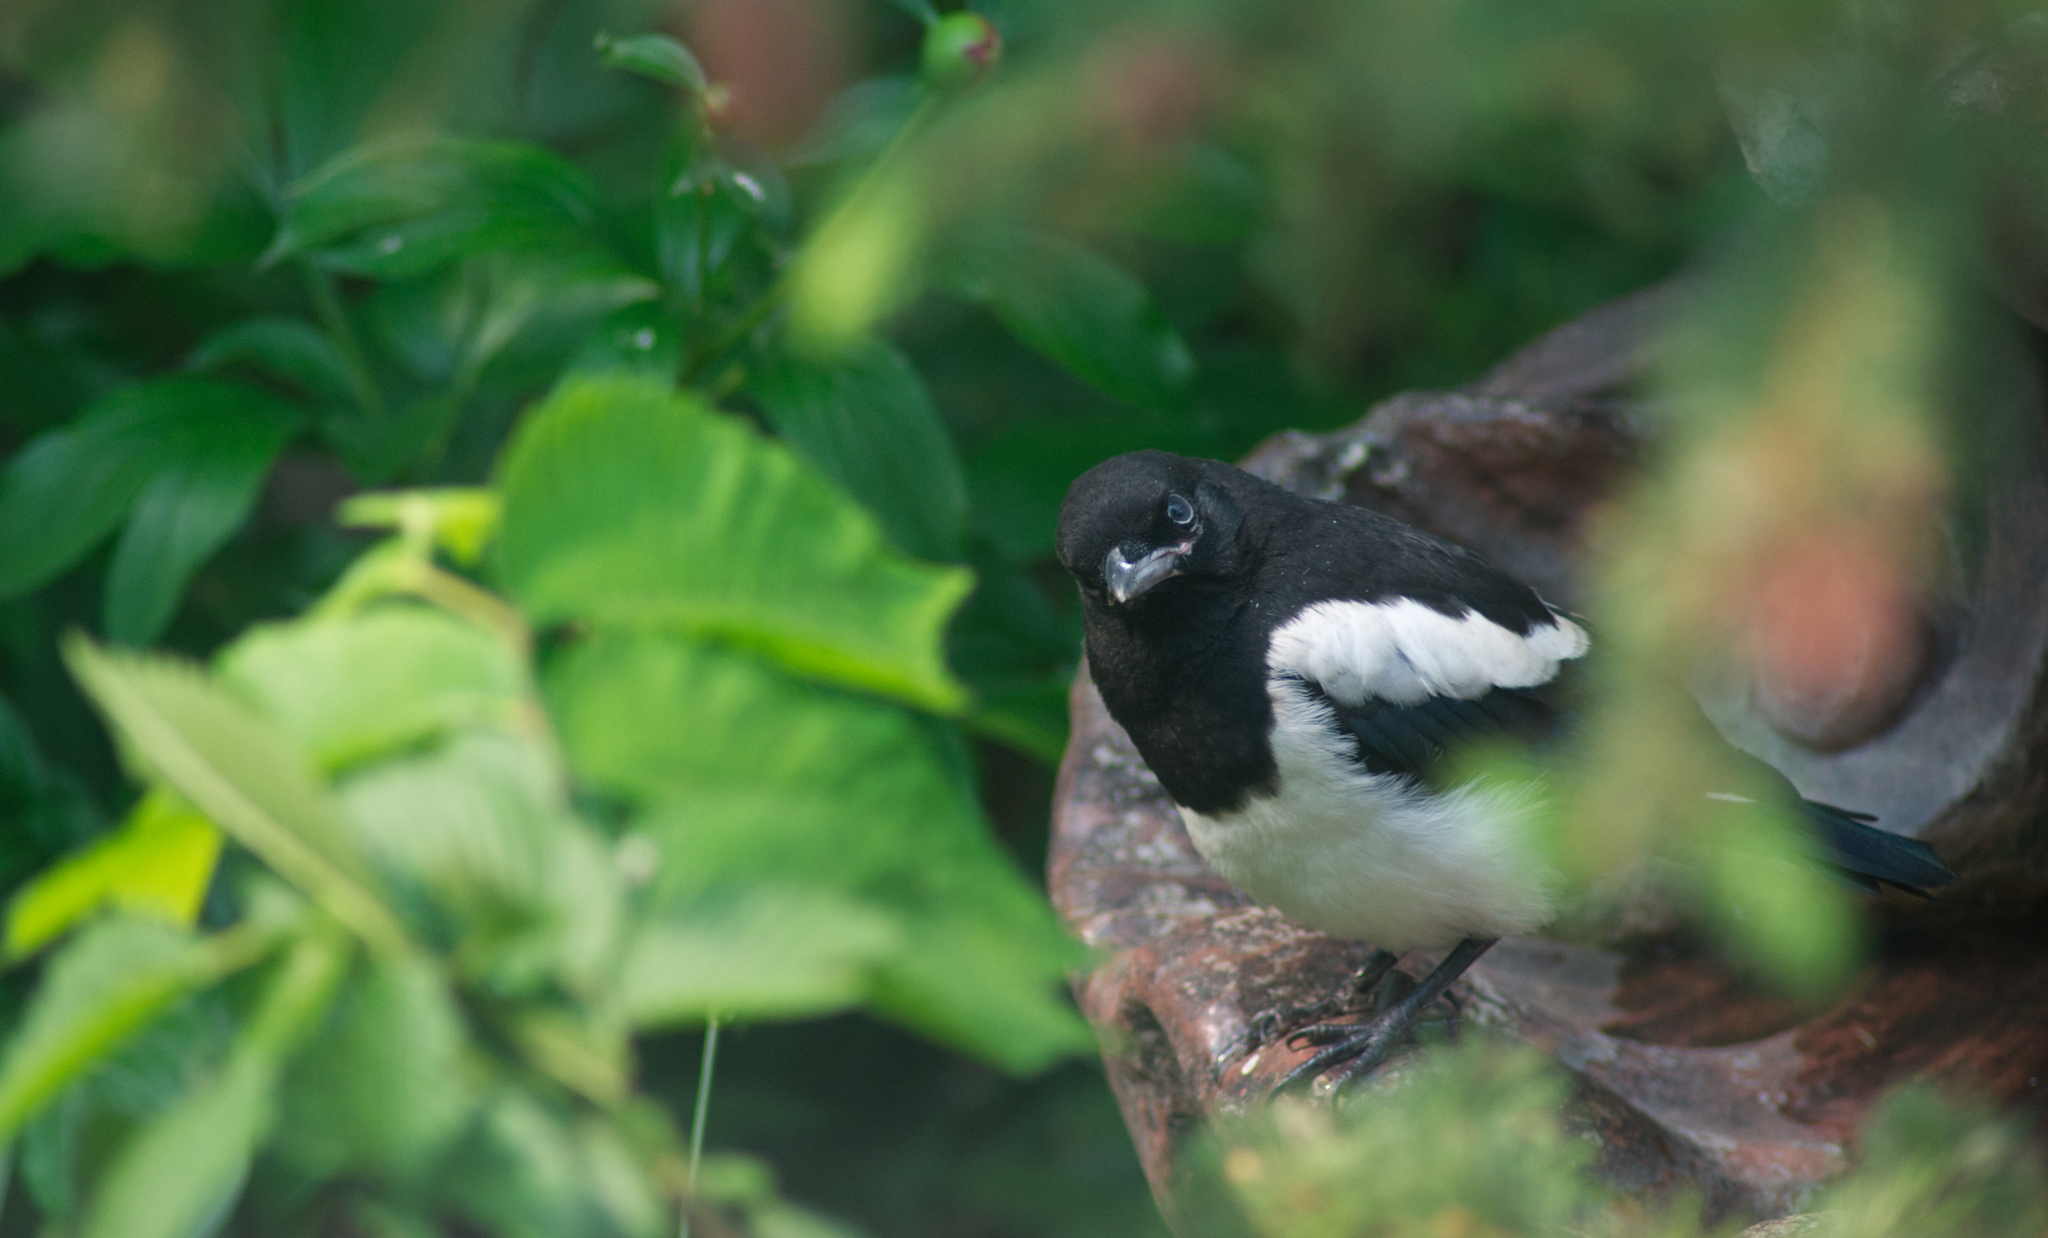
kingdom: Animalia
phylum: Chordata
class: Aves
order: Passeriformes
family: Corvidae
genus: Pica
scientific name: Pica hudsonia
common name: Black-billed magpie
